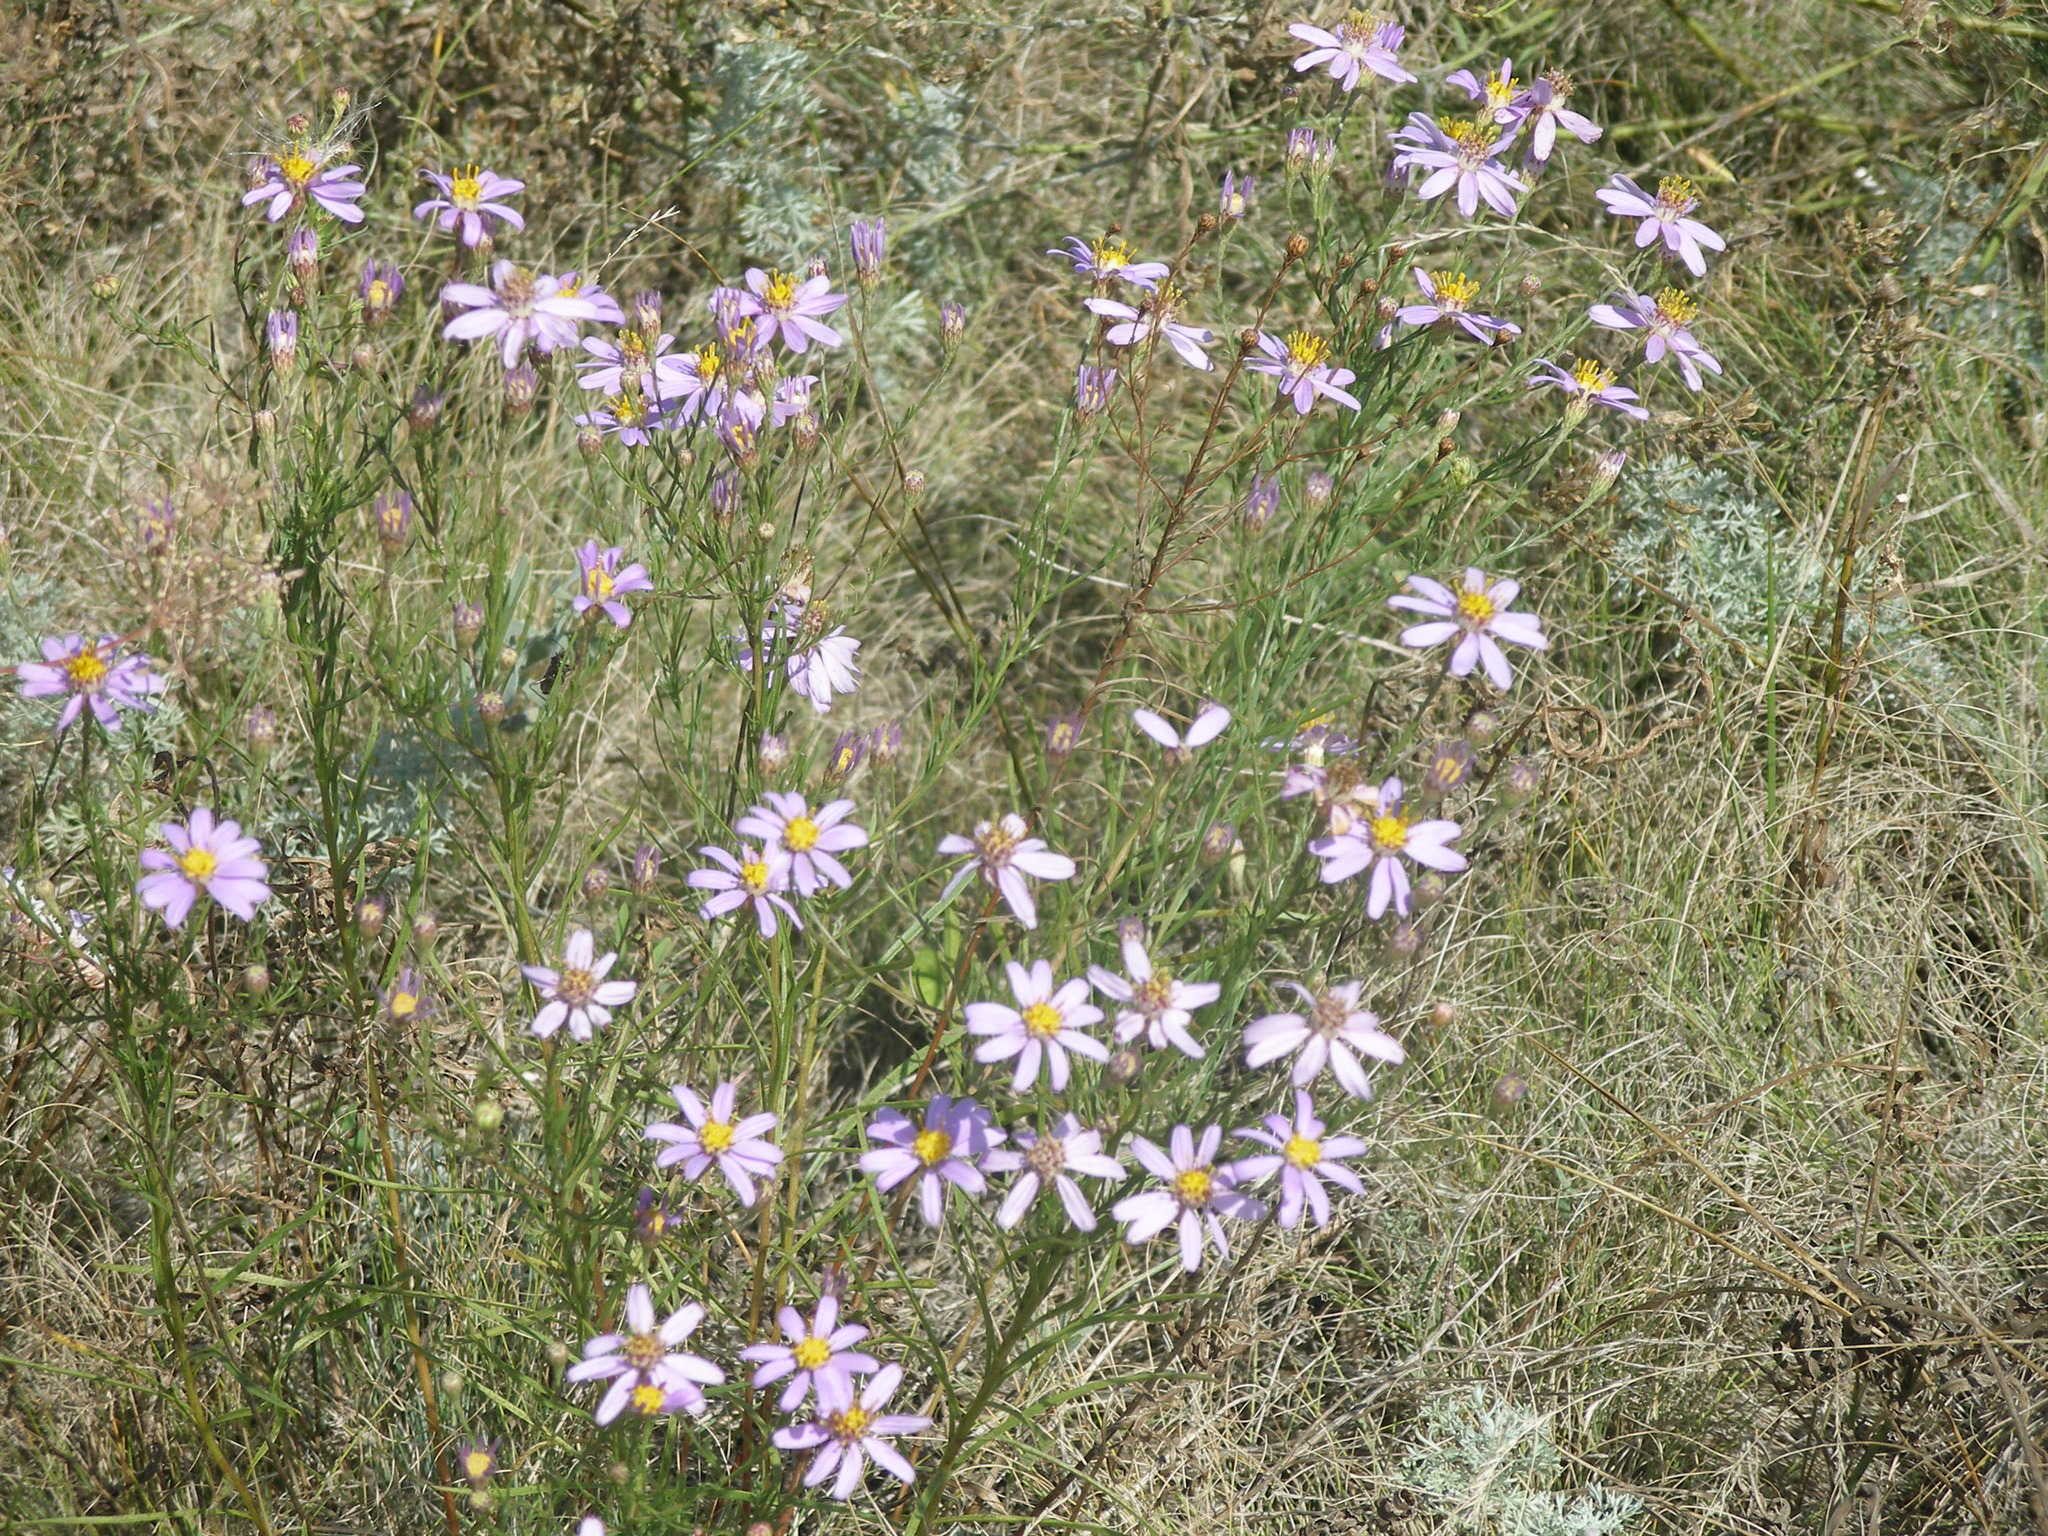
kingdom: Plantae
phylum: Tracheophyta
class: Magnoliopsida
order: Asterales
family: Asteraceae
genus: Galatella
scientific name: Galatella angustissima
